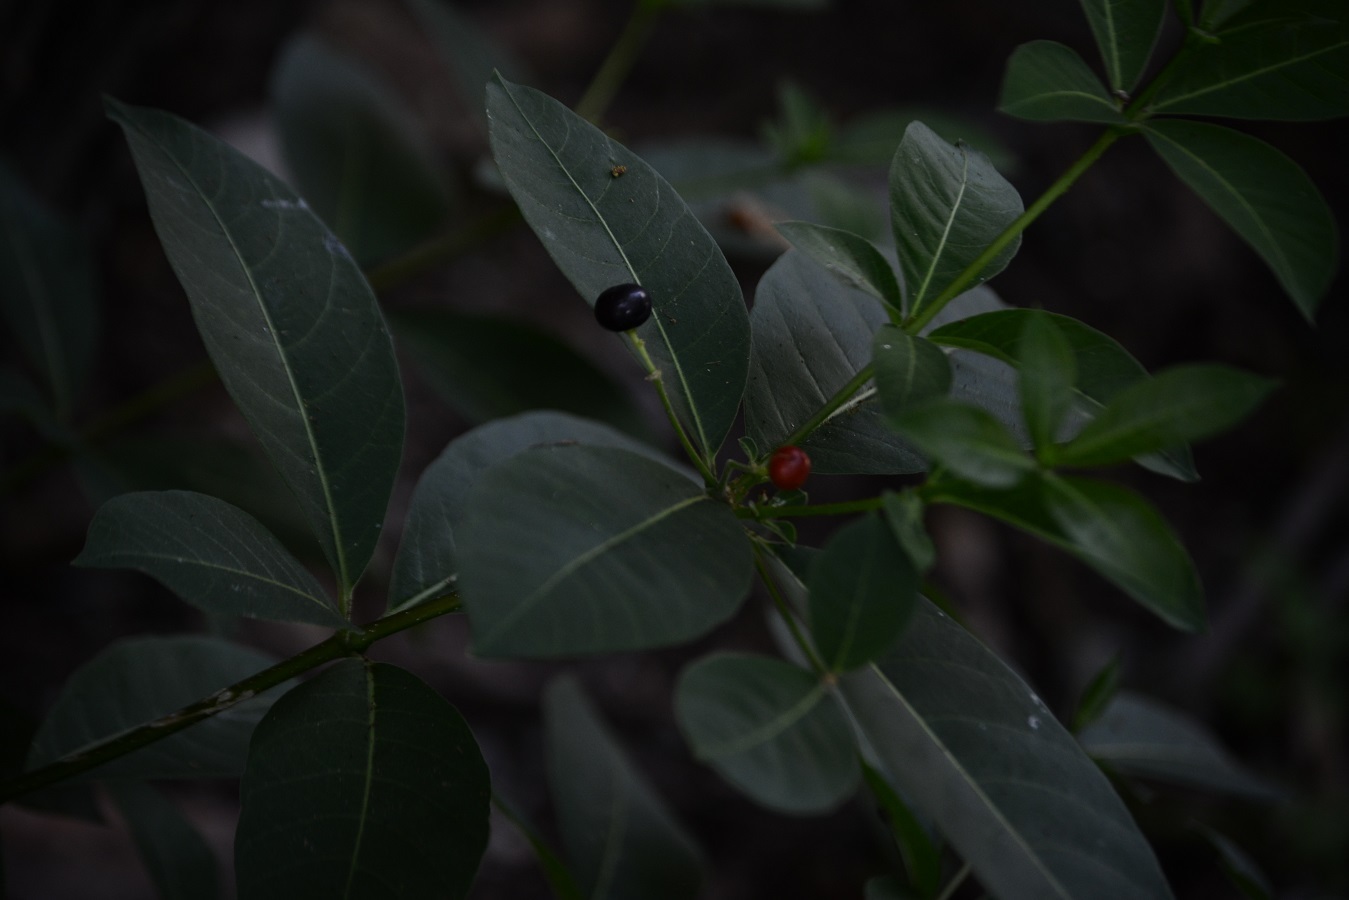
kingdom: Plantae
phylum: Tracheophyta
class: Magnoliopsida
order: Gentianales
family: Apocynaceae
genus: Rauvolfia
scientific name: Rauvolfia tetraphylla
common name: Four-leaf devil-pepper
